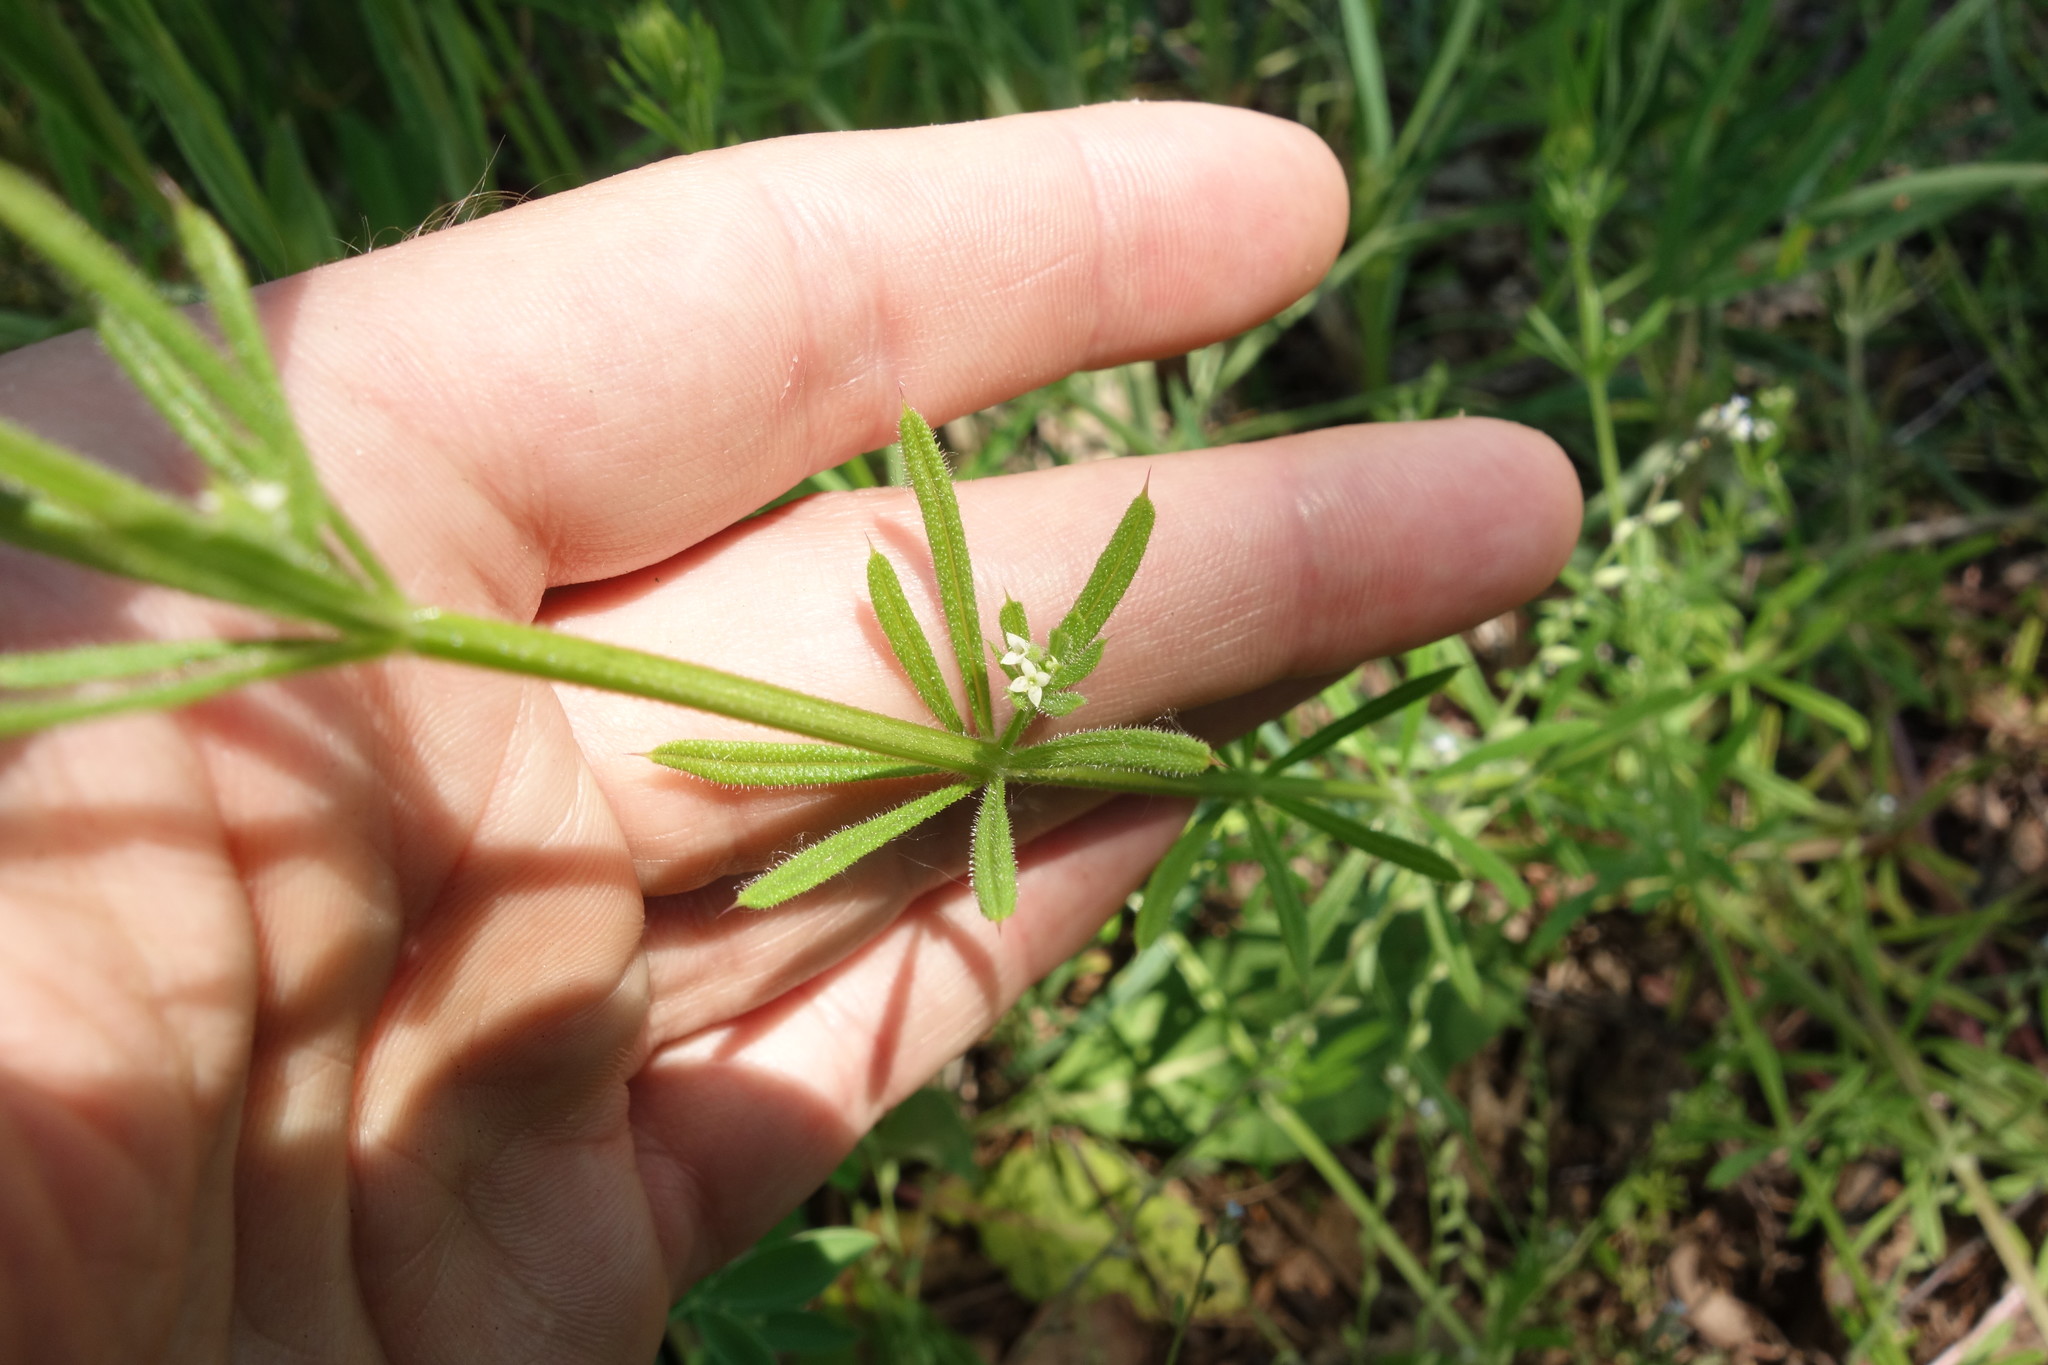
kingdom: Plantae
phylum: Tracheophyta
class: Magnoliopsida
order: Gentianales
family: Rubiaceae
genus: Galium
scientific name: Galium aparine
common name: Cleavers
